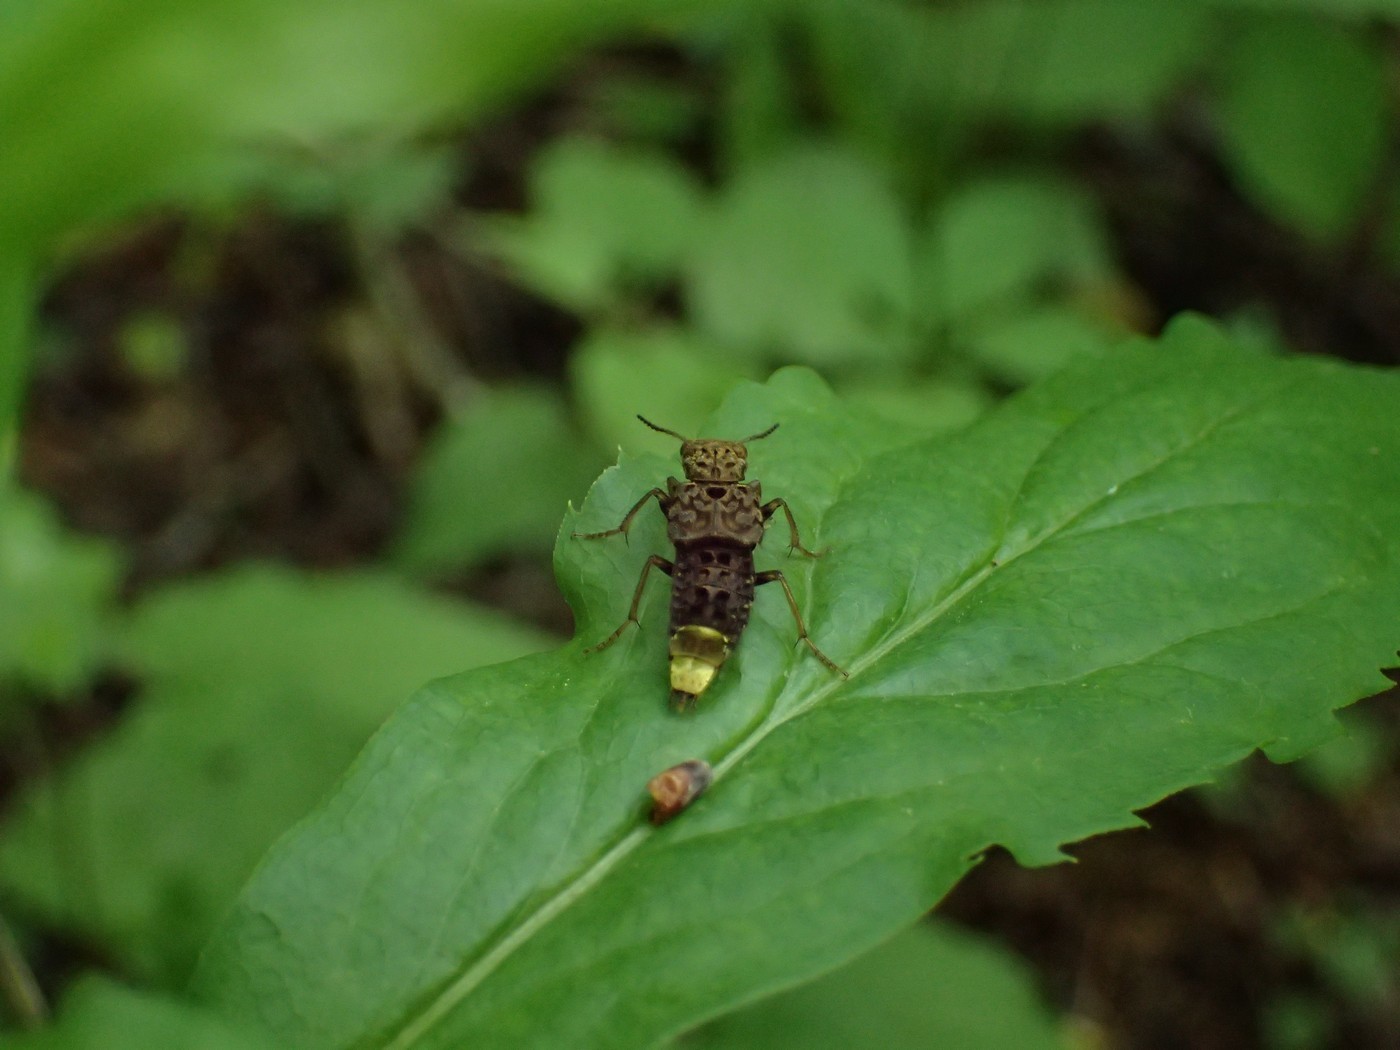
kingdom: Animalia
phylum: Arthropoda
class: Insecta
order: Coleoptera
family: Staphylinidae
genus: Ontholestes
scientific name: Ontholestes cingulatus
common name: Gold-and-brown rove beetle
